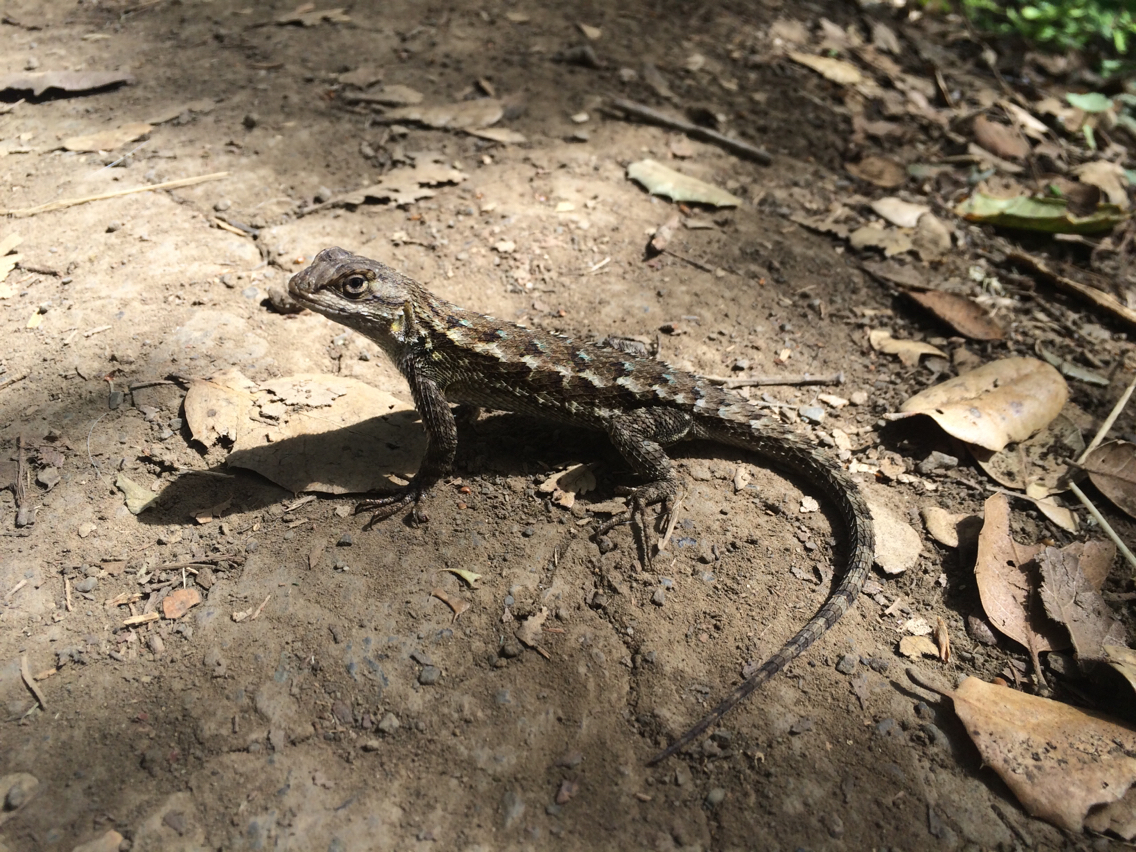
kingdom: Animalia
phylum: Chordata
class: Squamata
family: Phrynosomatidae
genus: Sceloporus
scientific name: Sceloporus occidentalis
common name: Western fence lizard
